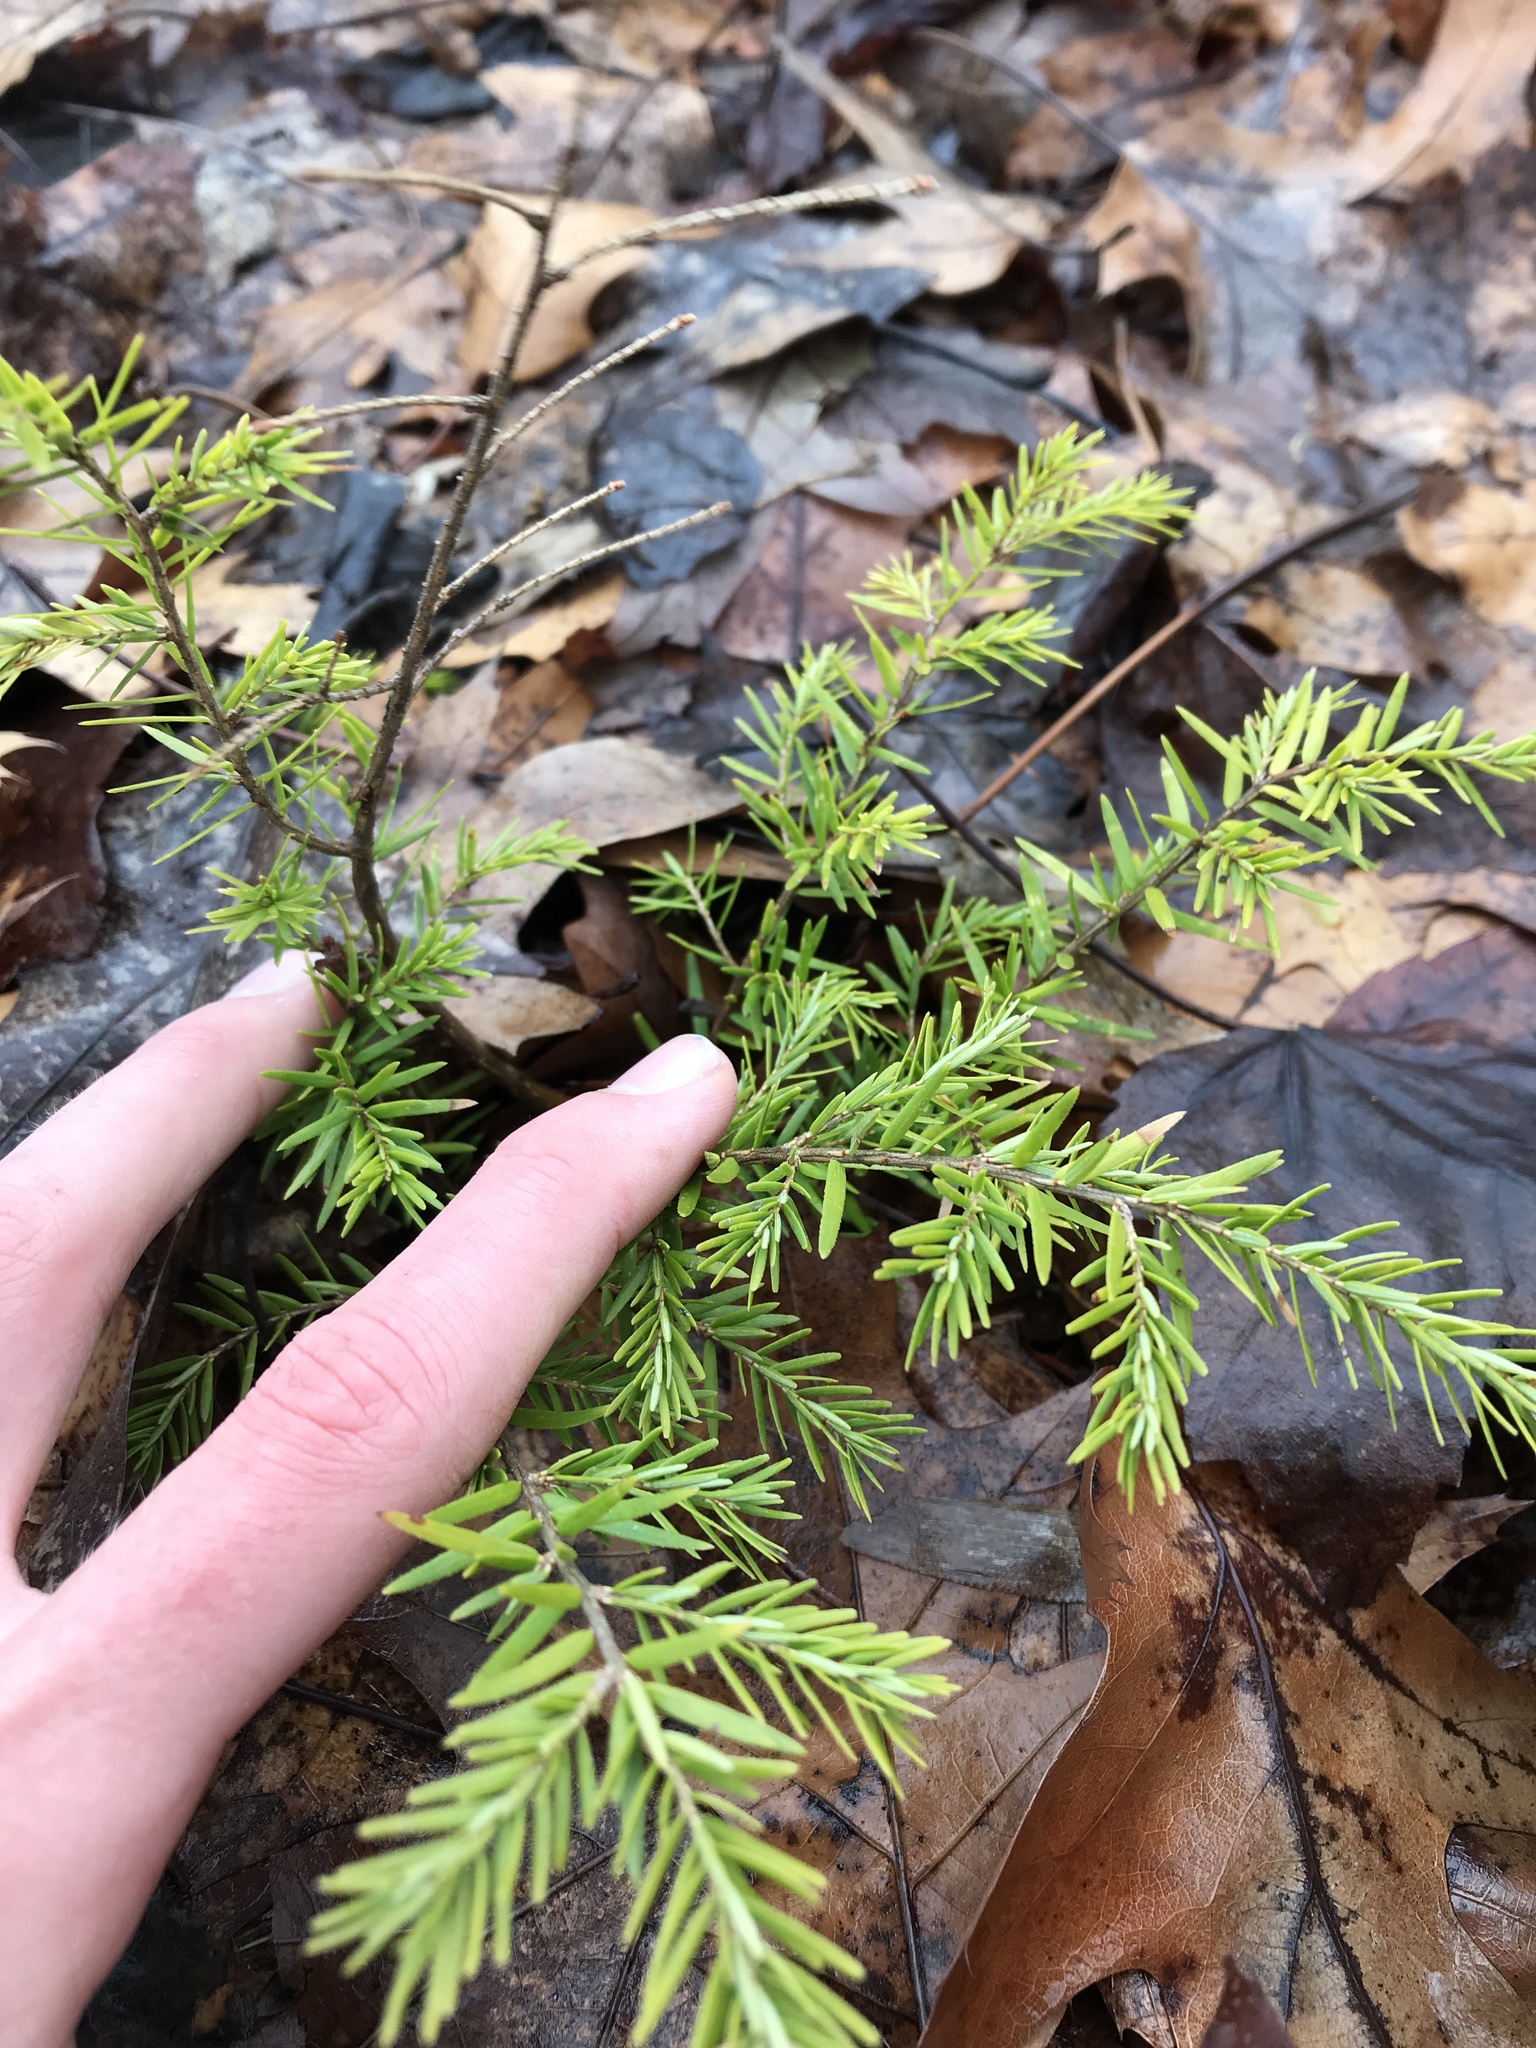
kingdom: Plantae
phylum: Tracheophyta
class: Pinopsida
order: Pinales
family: Pinaceae
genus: Tsuga
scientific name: Tsuga canadensis
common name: Eastern hemlock
